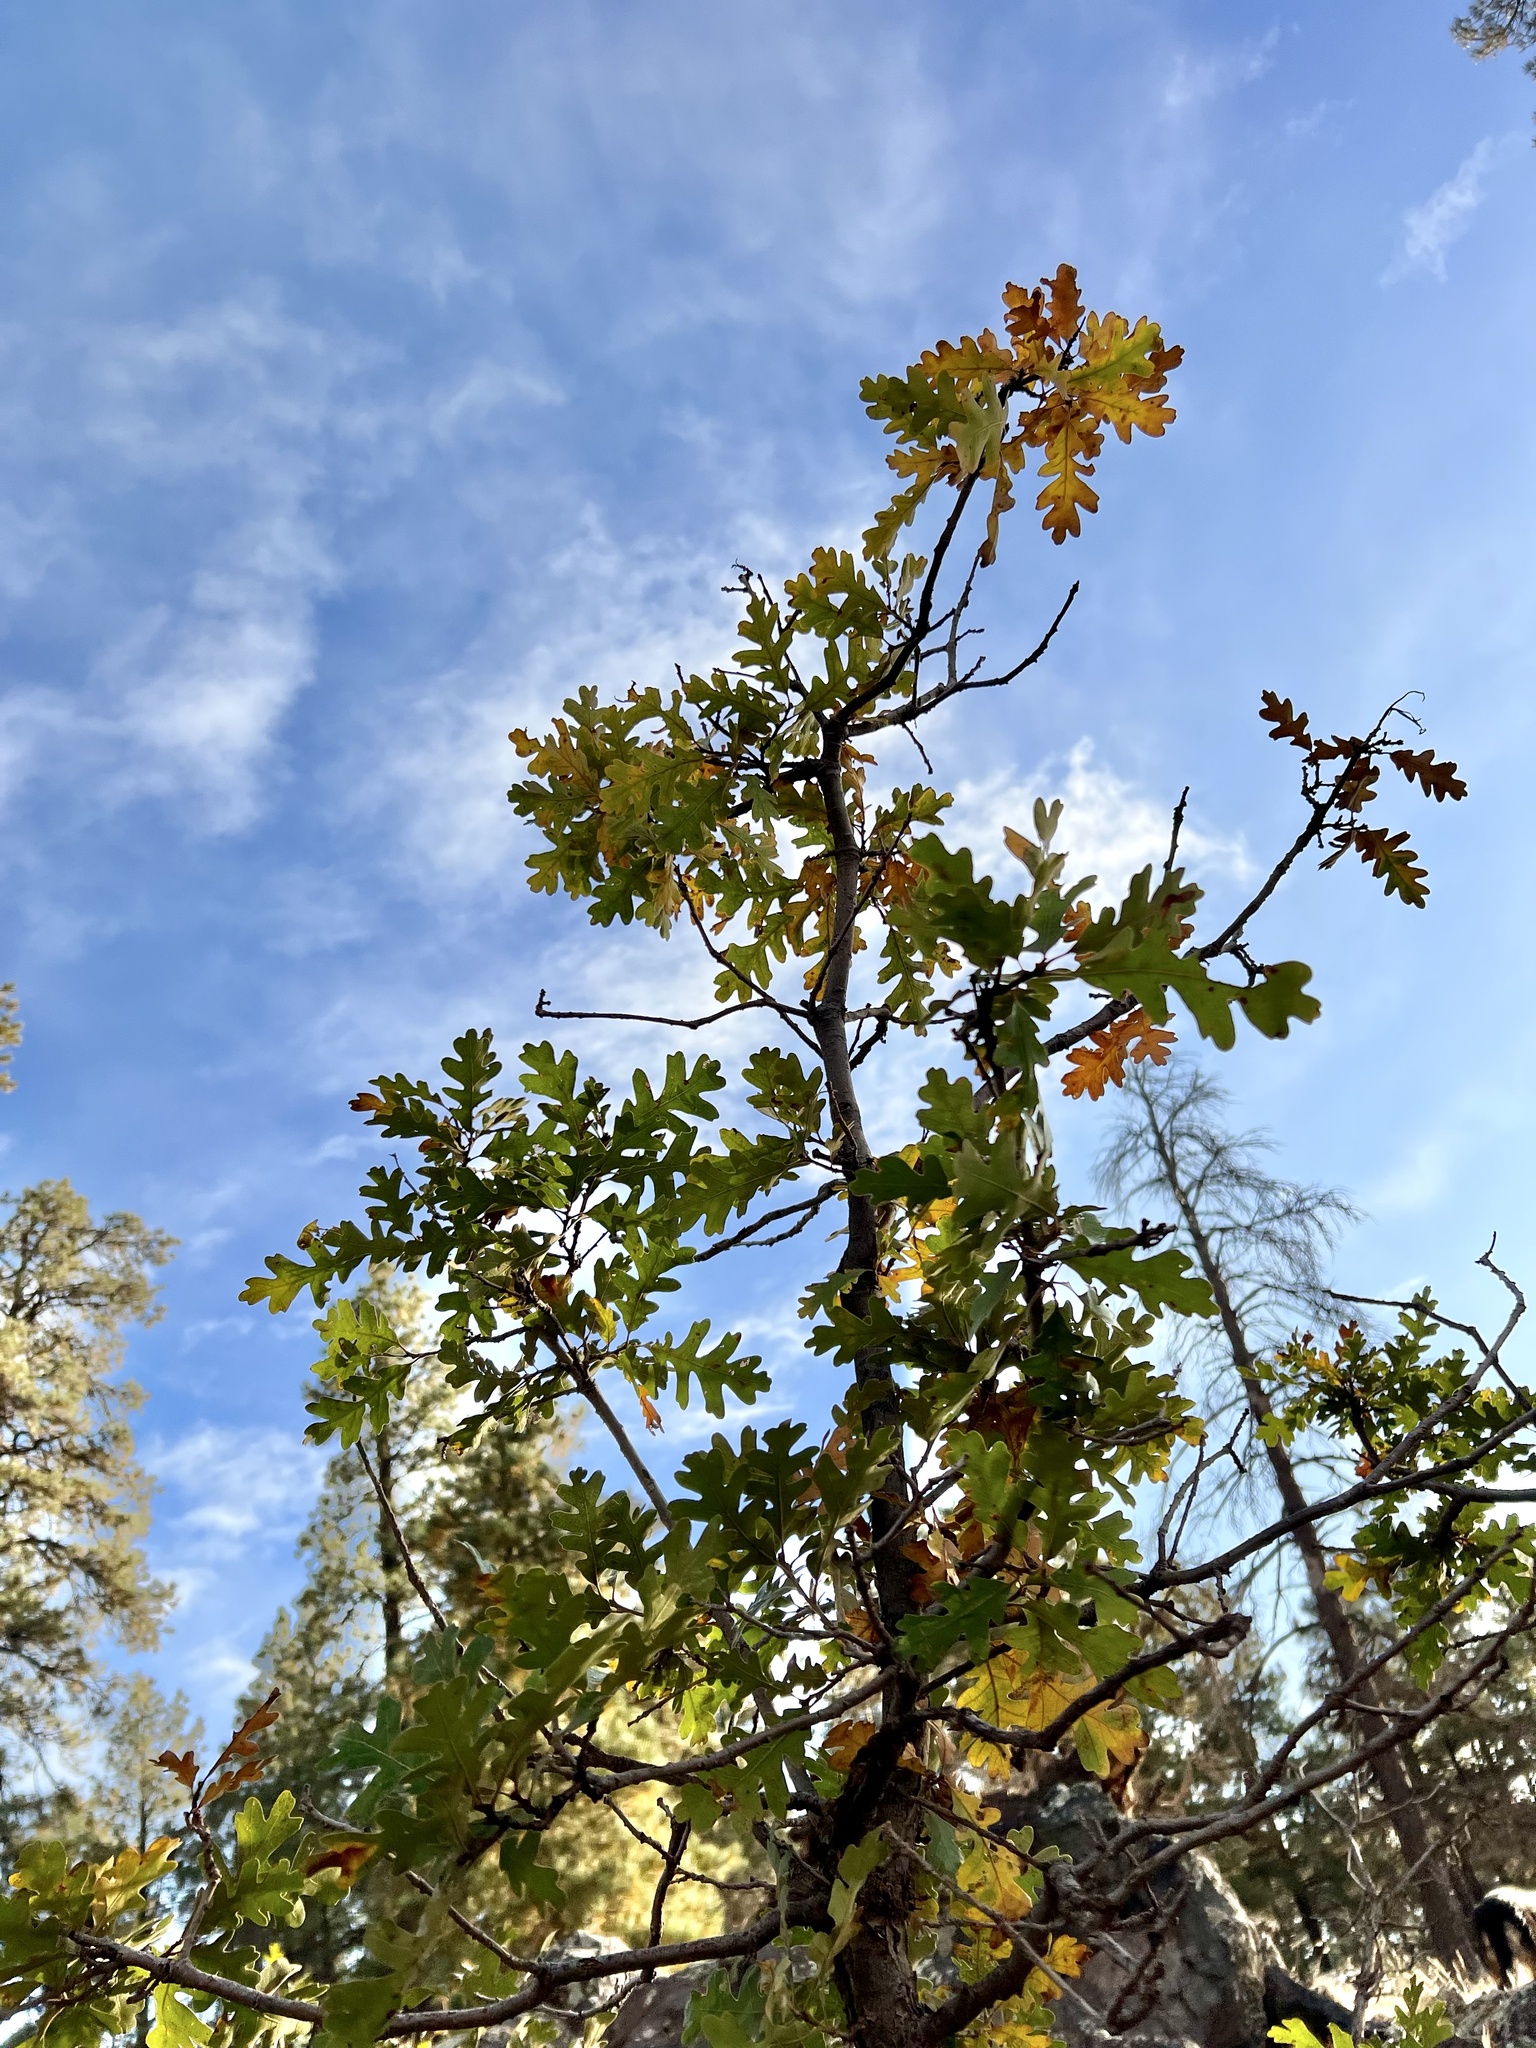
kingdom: Plantae
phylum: Tracheophyta
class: Magnoliopsida
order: Fagales
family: Fagaceae
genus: Quercus
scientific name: Quercus gambelii
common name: Gambel oak
